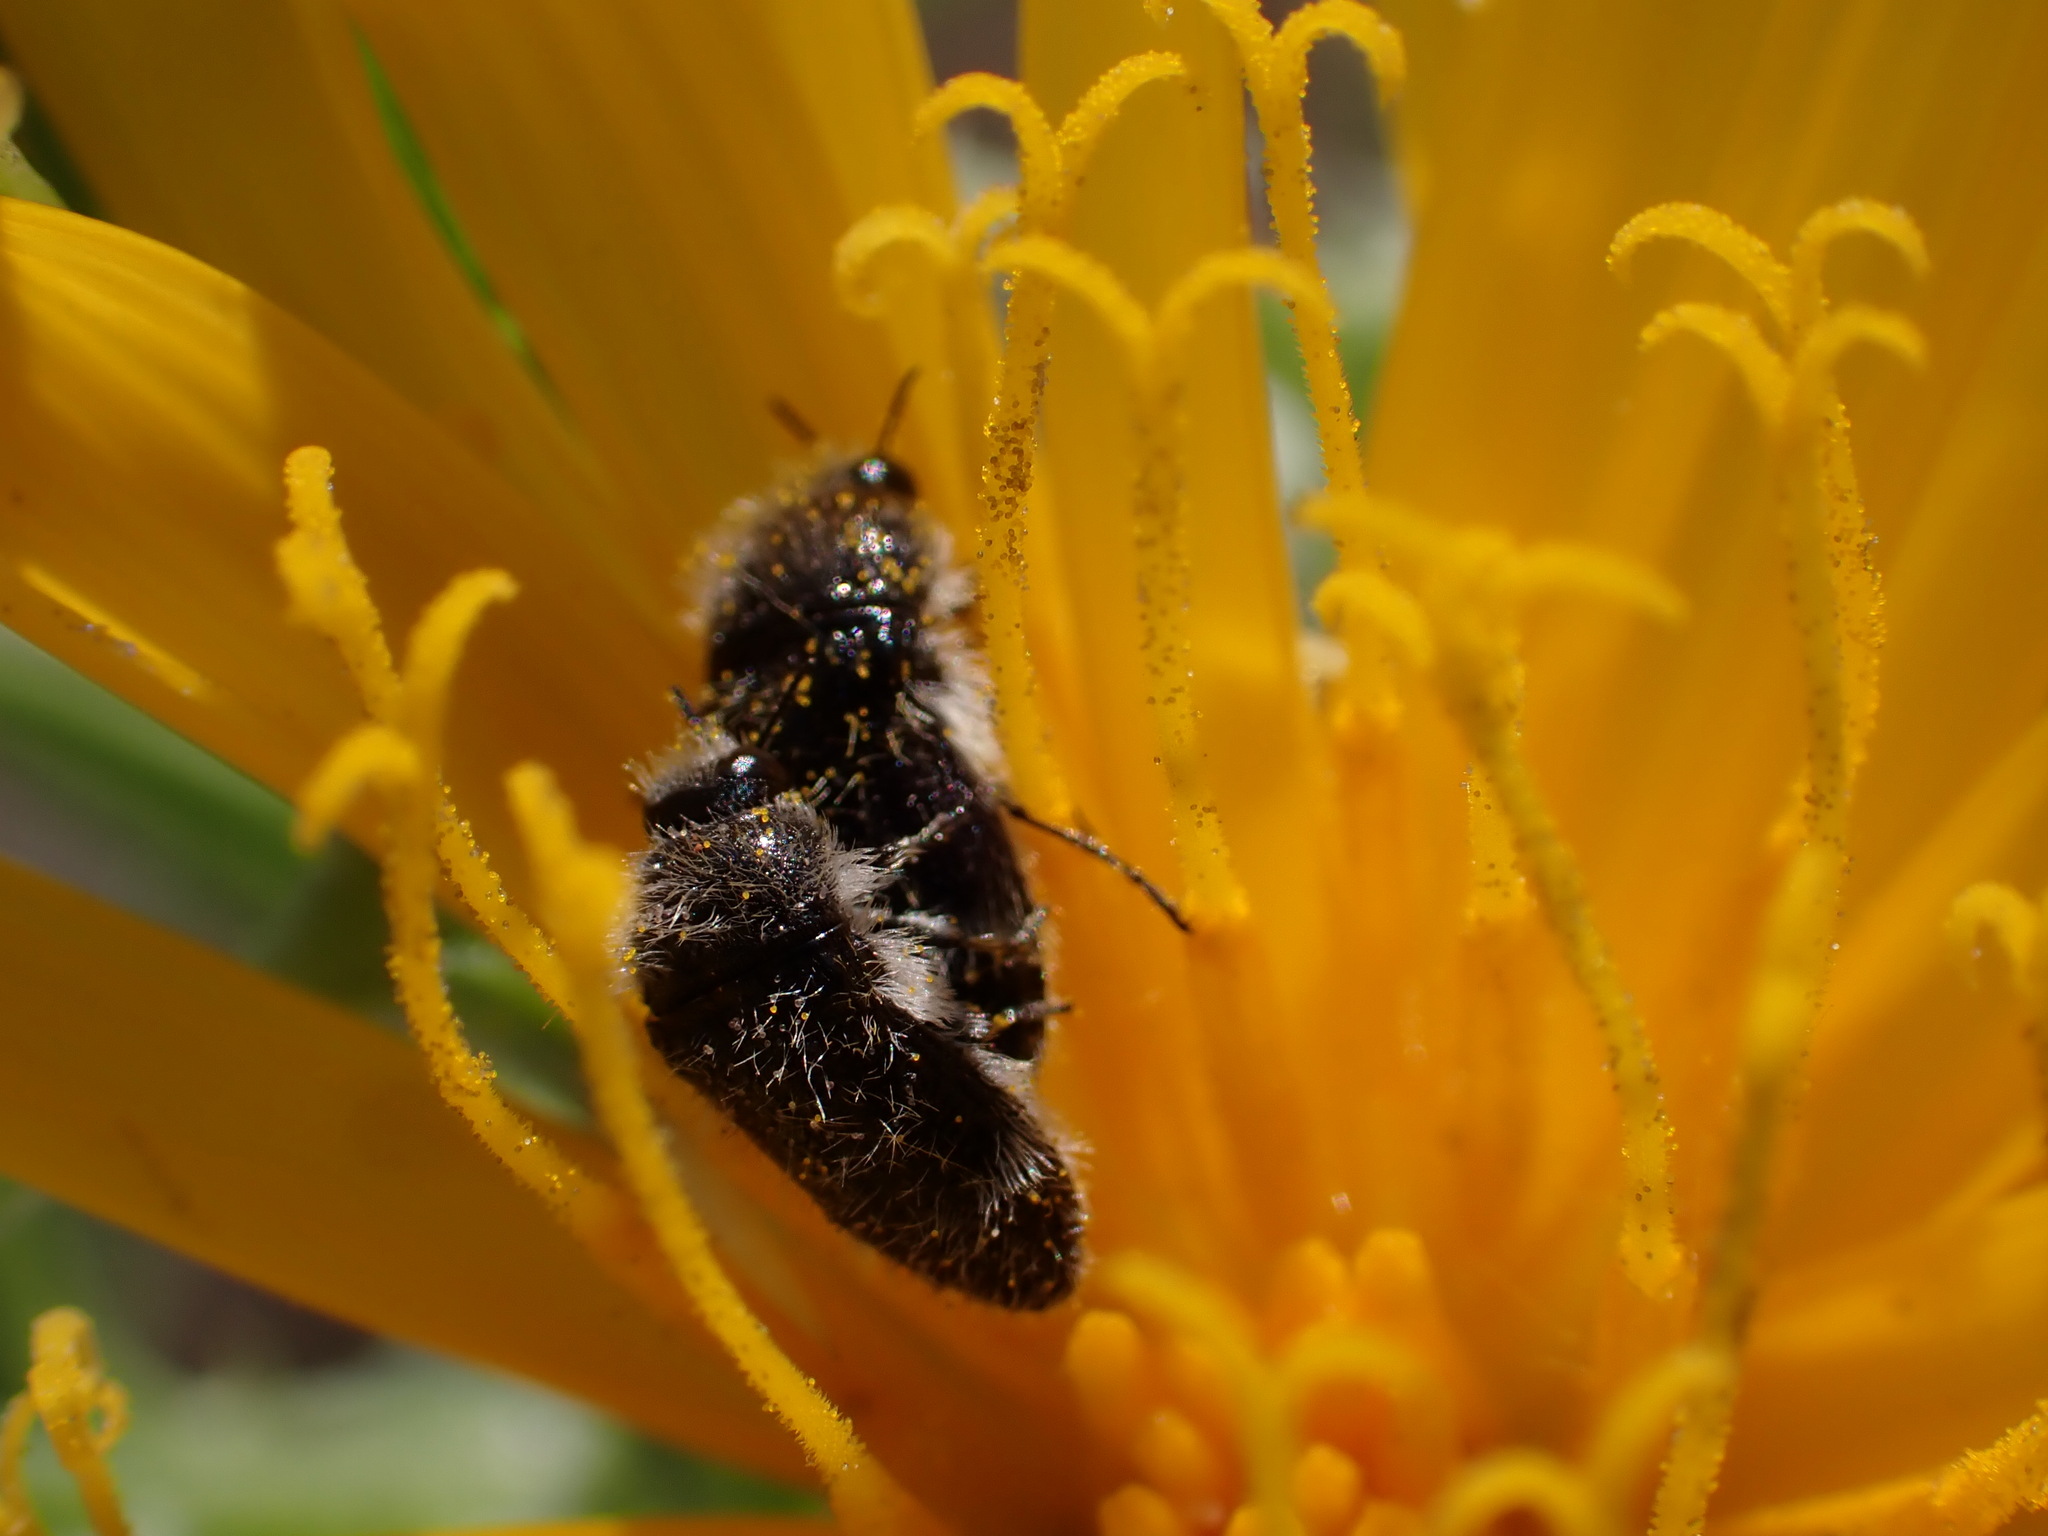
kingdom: Animalia
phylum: Arthropoda
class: Insecta
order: Coleoptera
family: Buprestidae
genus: Acmaeoderella
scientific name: Acmaeoderella perroti
